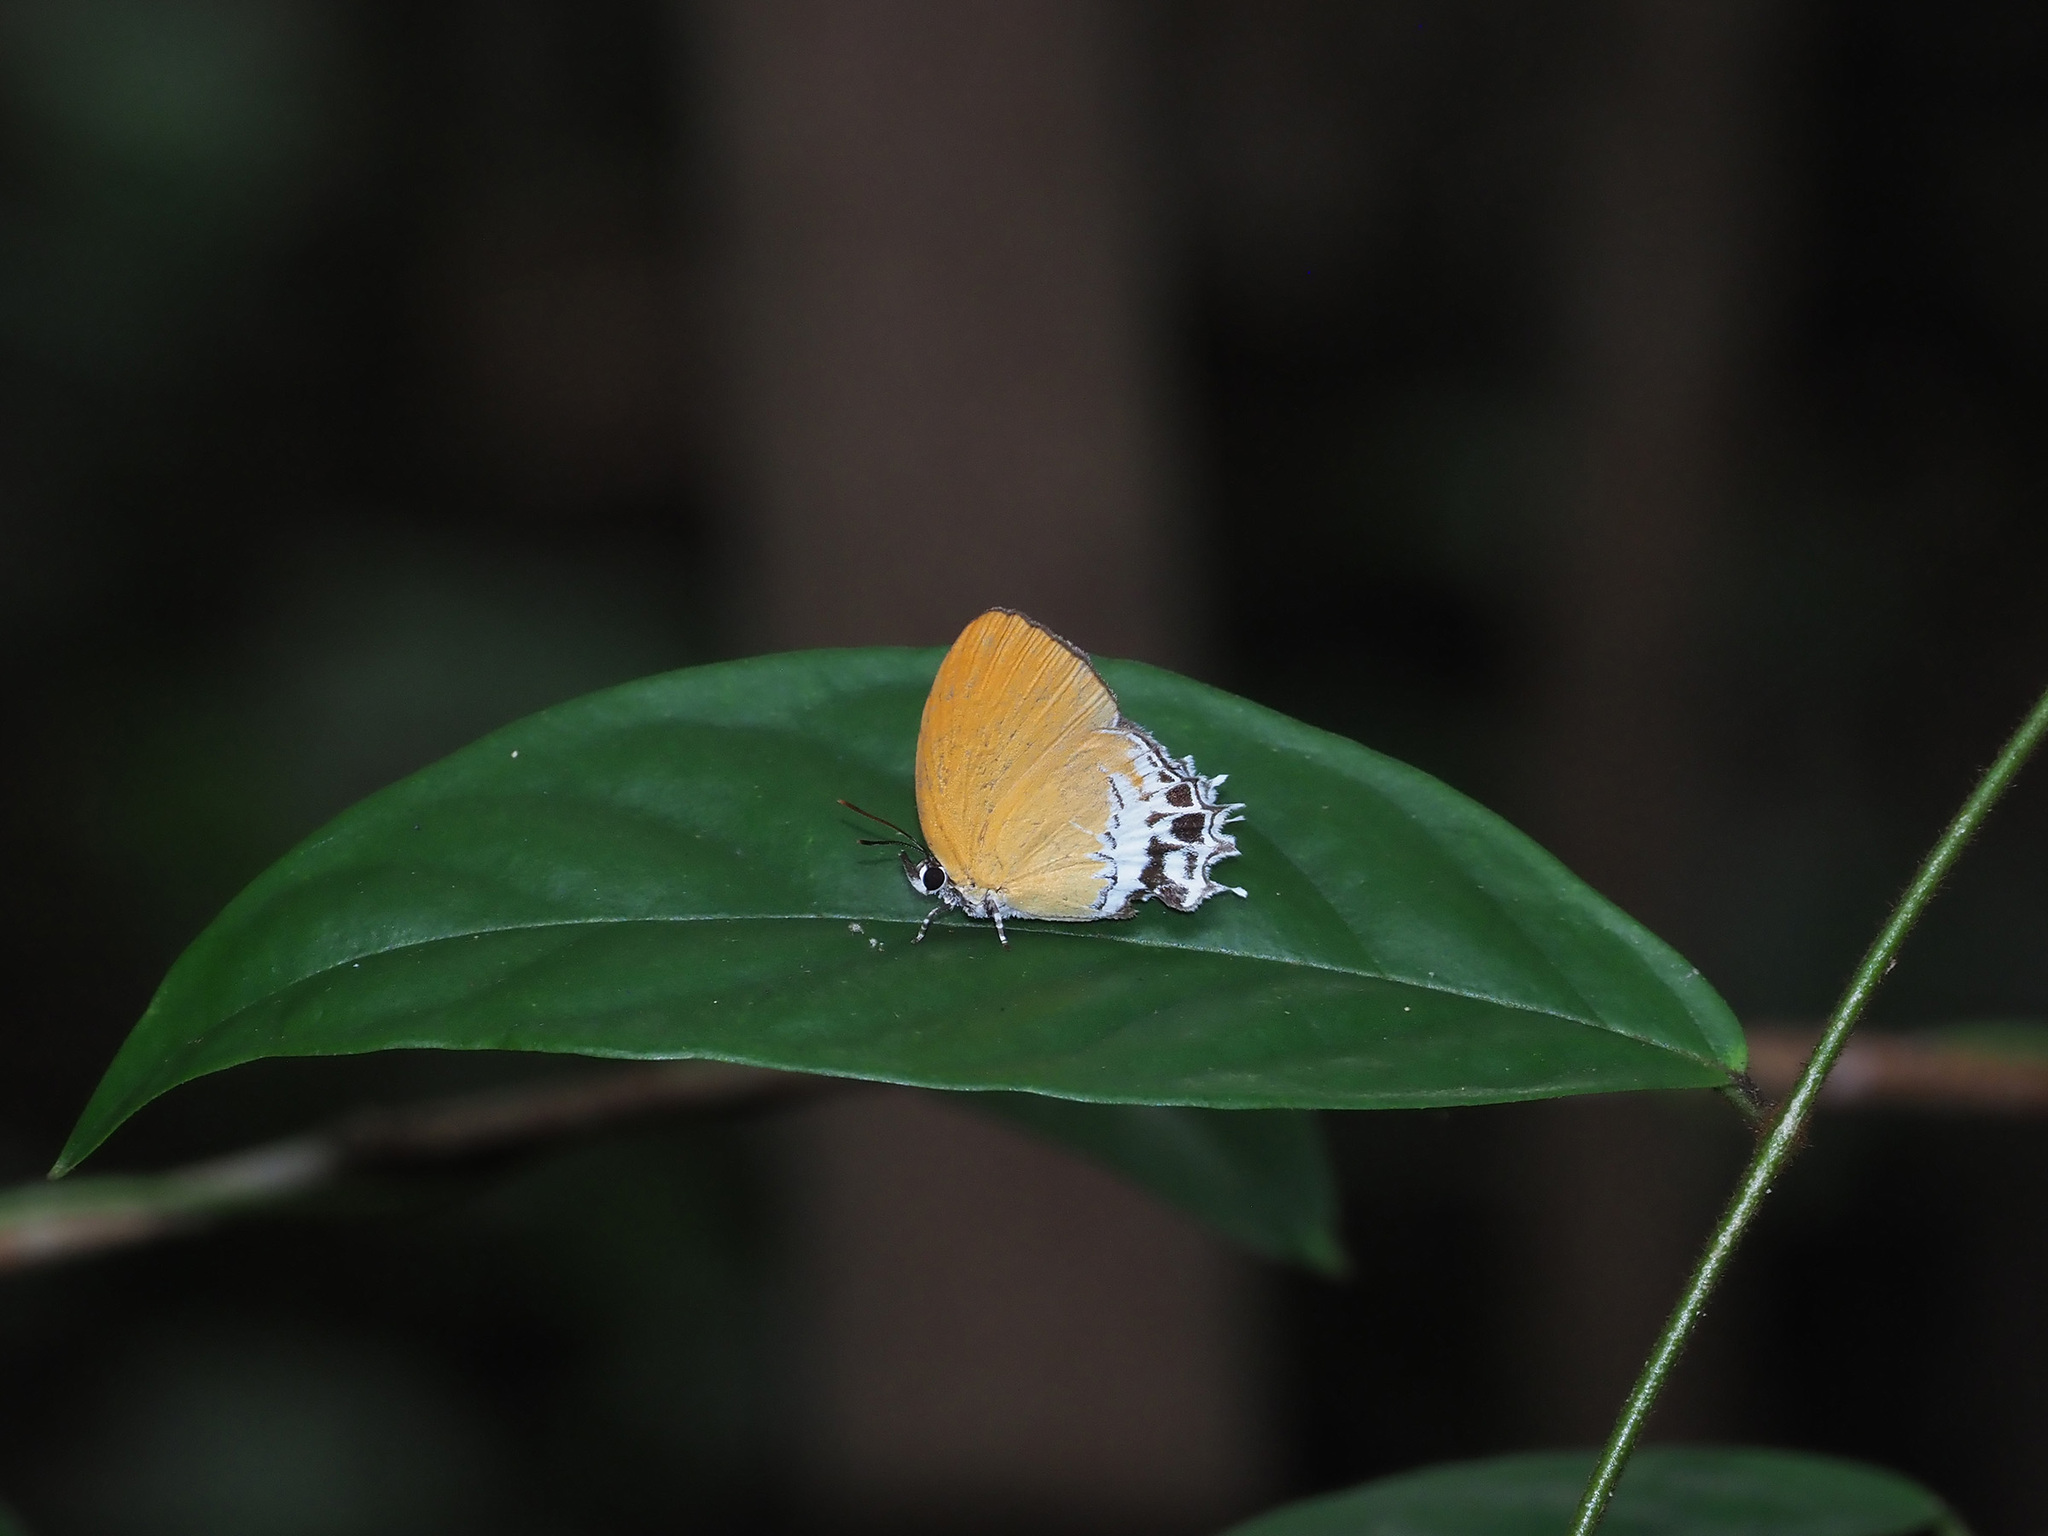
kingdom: Animalia
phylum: Arthropoda
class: Insecta
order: Lepidoptera
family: Lycaenidae
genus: Eooxylides
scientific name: Eooxylides tharis
